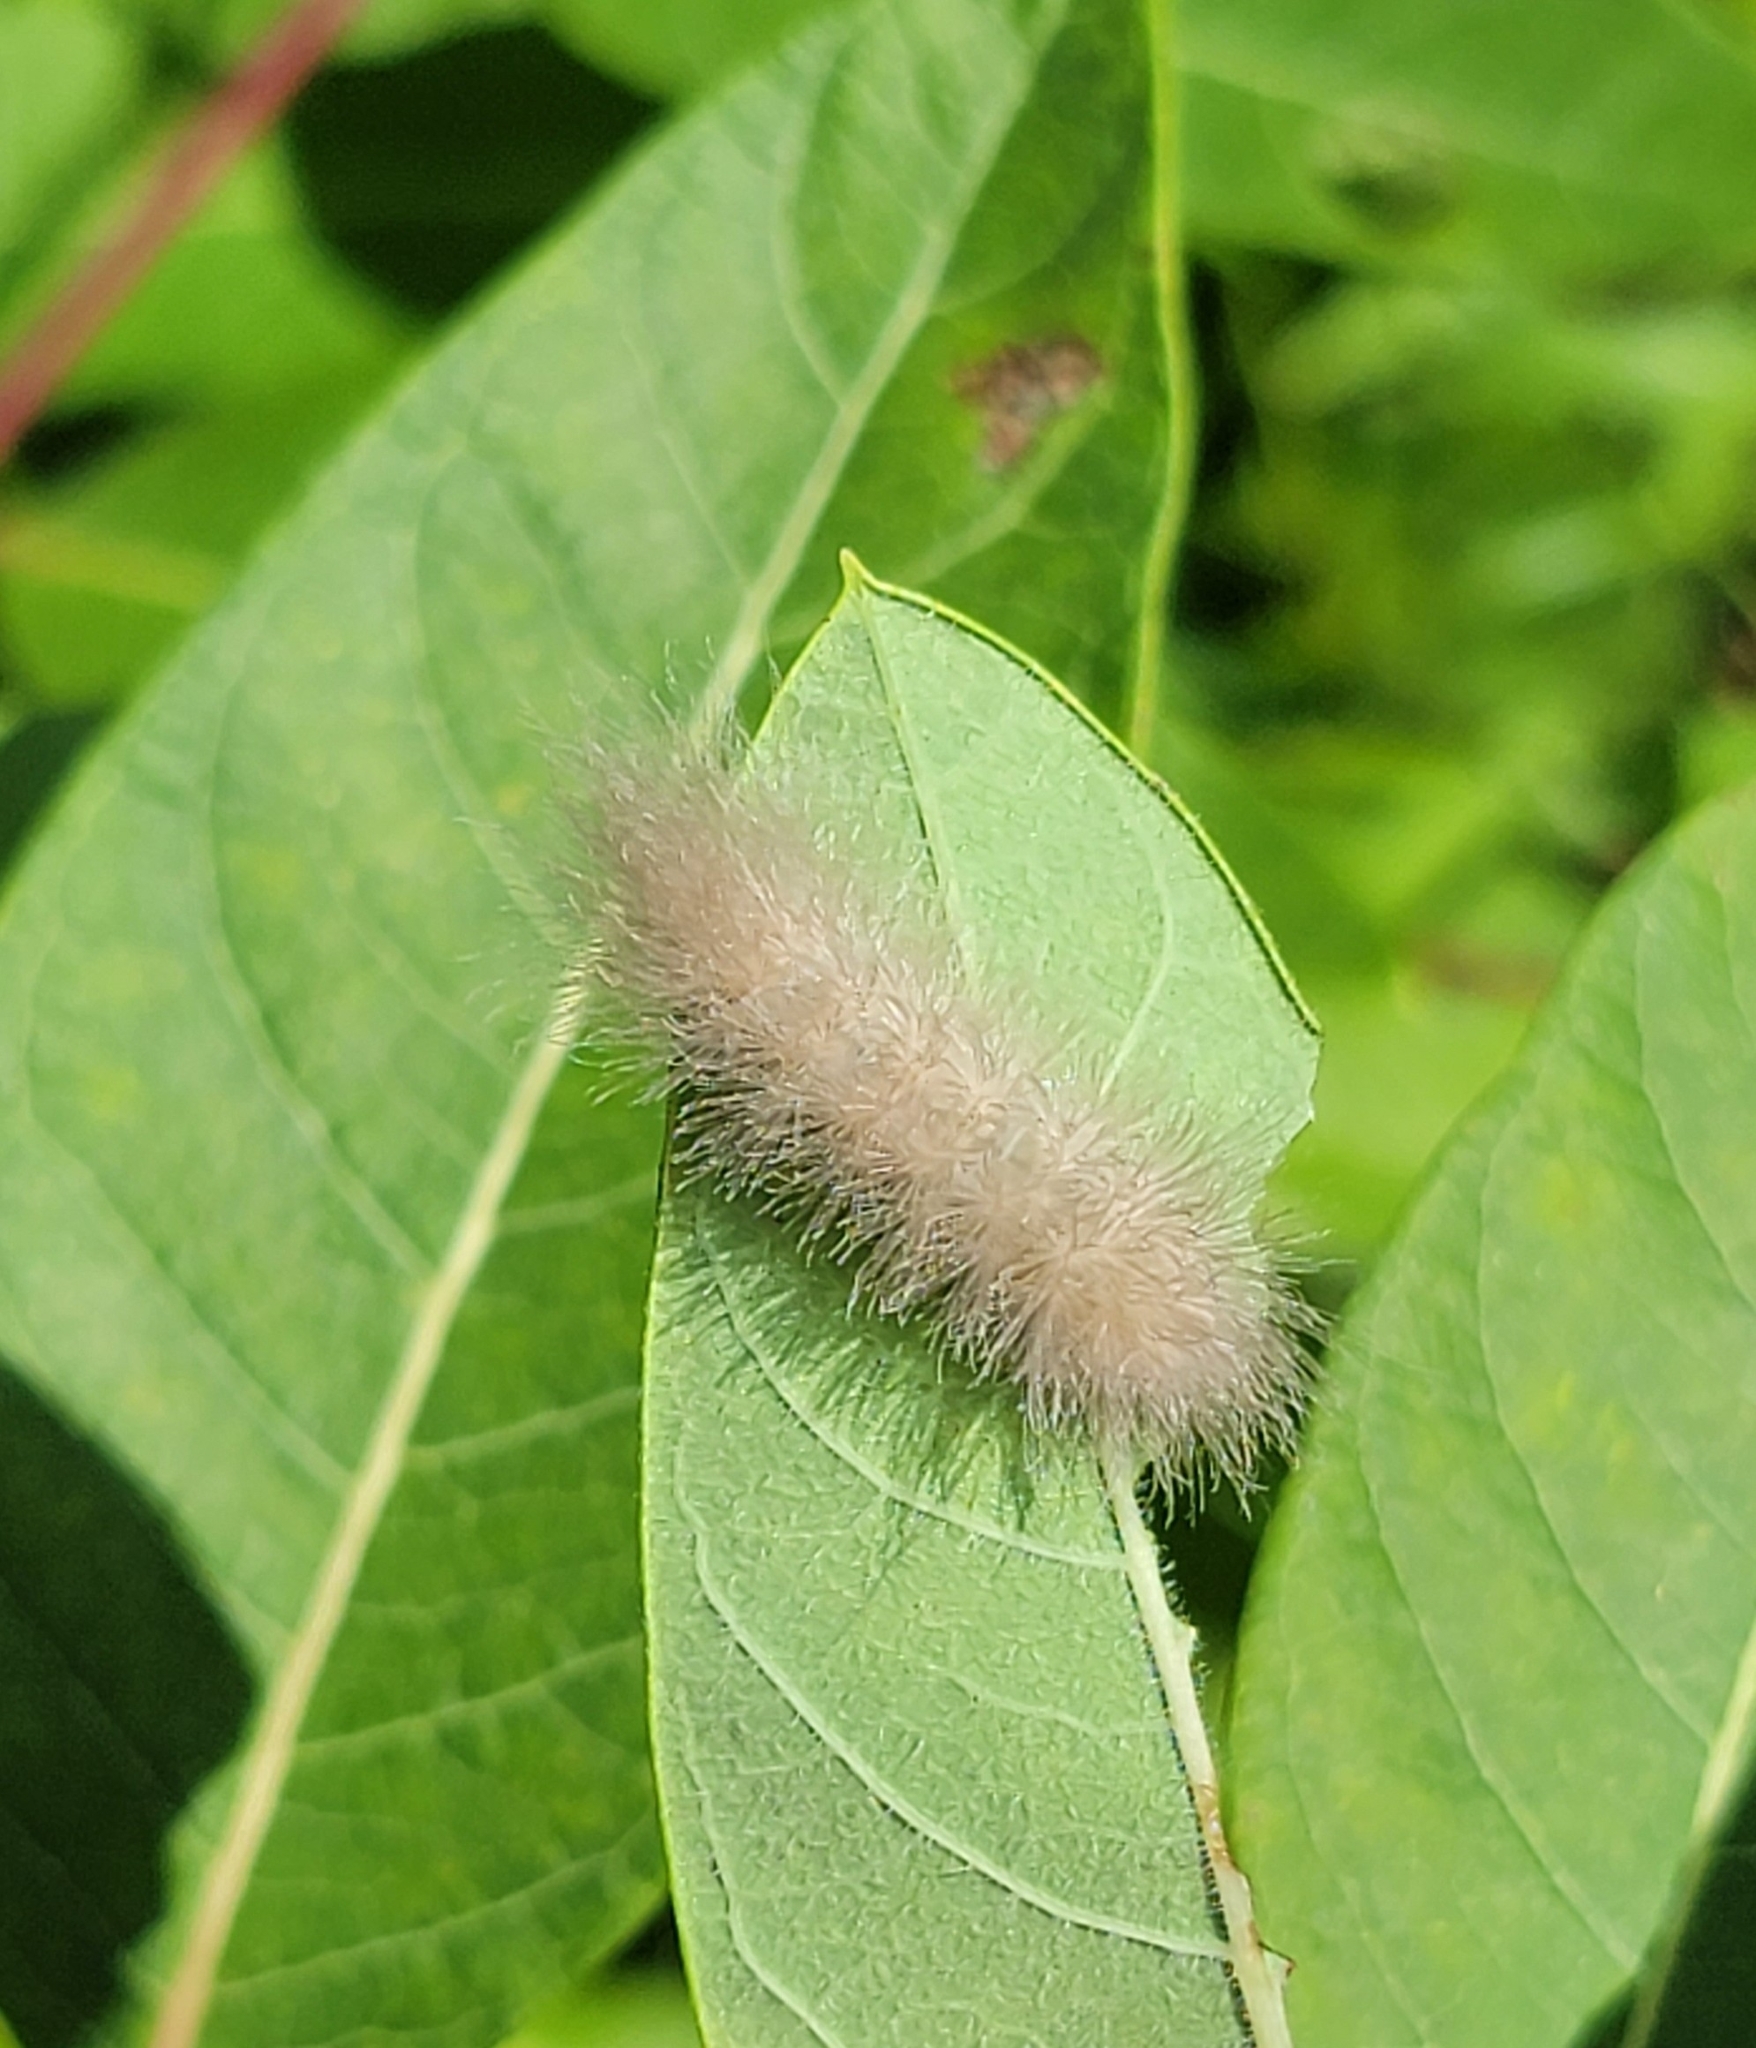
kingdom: Animalia
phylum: Arthropoda
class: Insecta
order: Lepidoptera
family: Erebidae
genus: Cycnia
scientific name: Cycnia tenera
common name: Delicate cycnia moth
